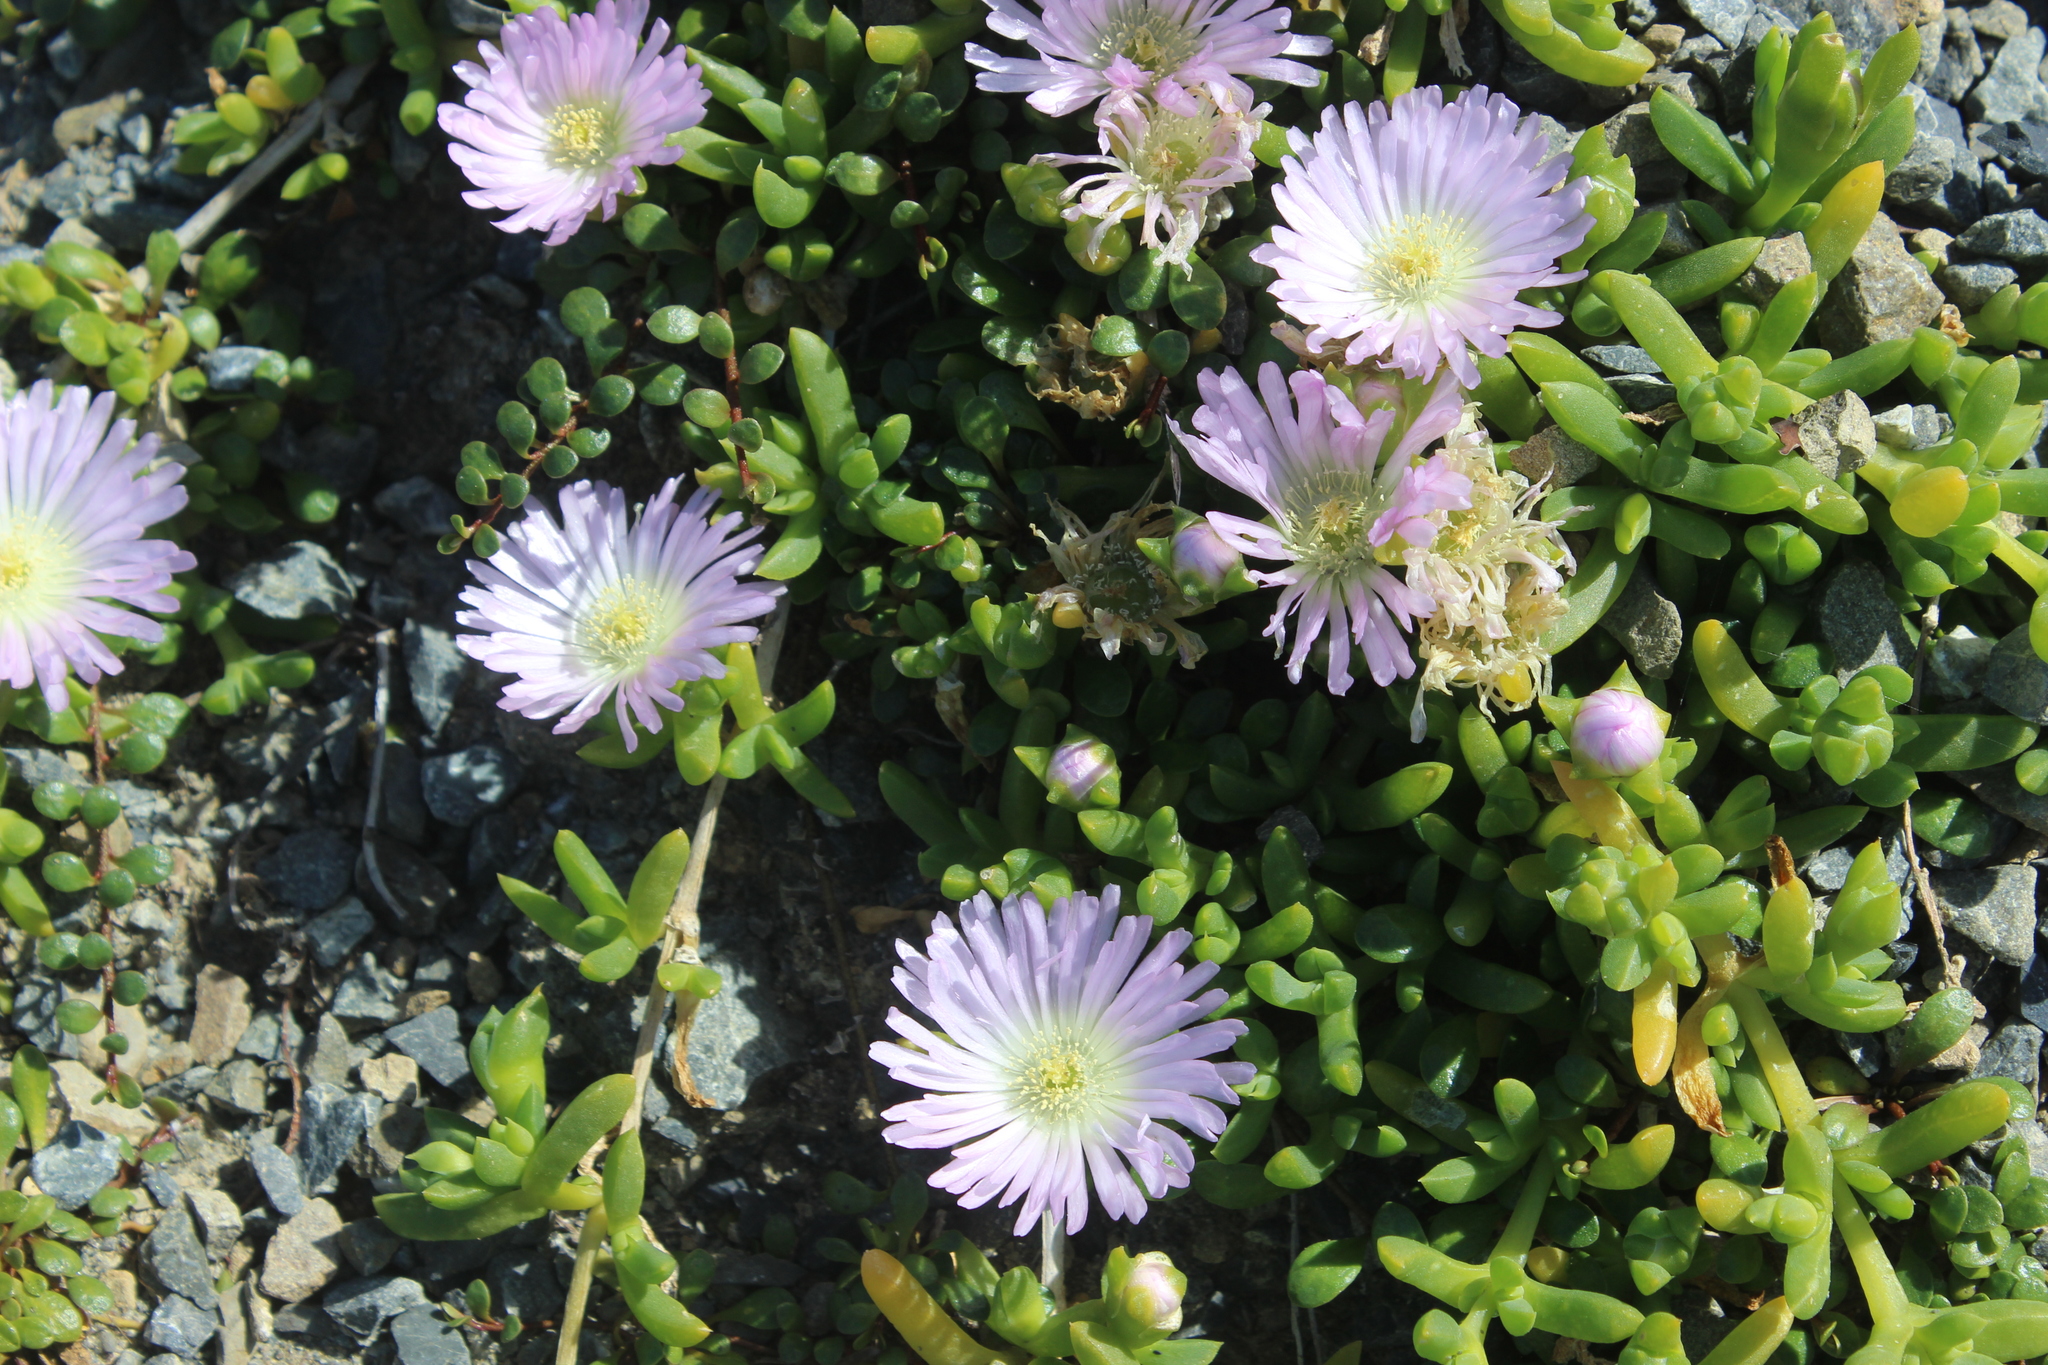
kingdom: Plantae
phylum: Tracheophyta
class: Magnoliopsida
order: Caryophyllales
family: Aizoaceae
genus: Disphyma
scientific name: Disphyma australe
